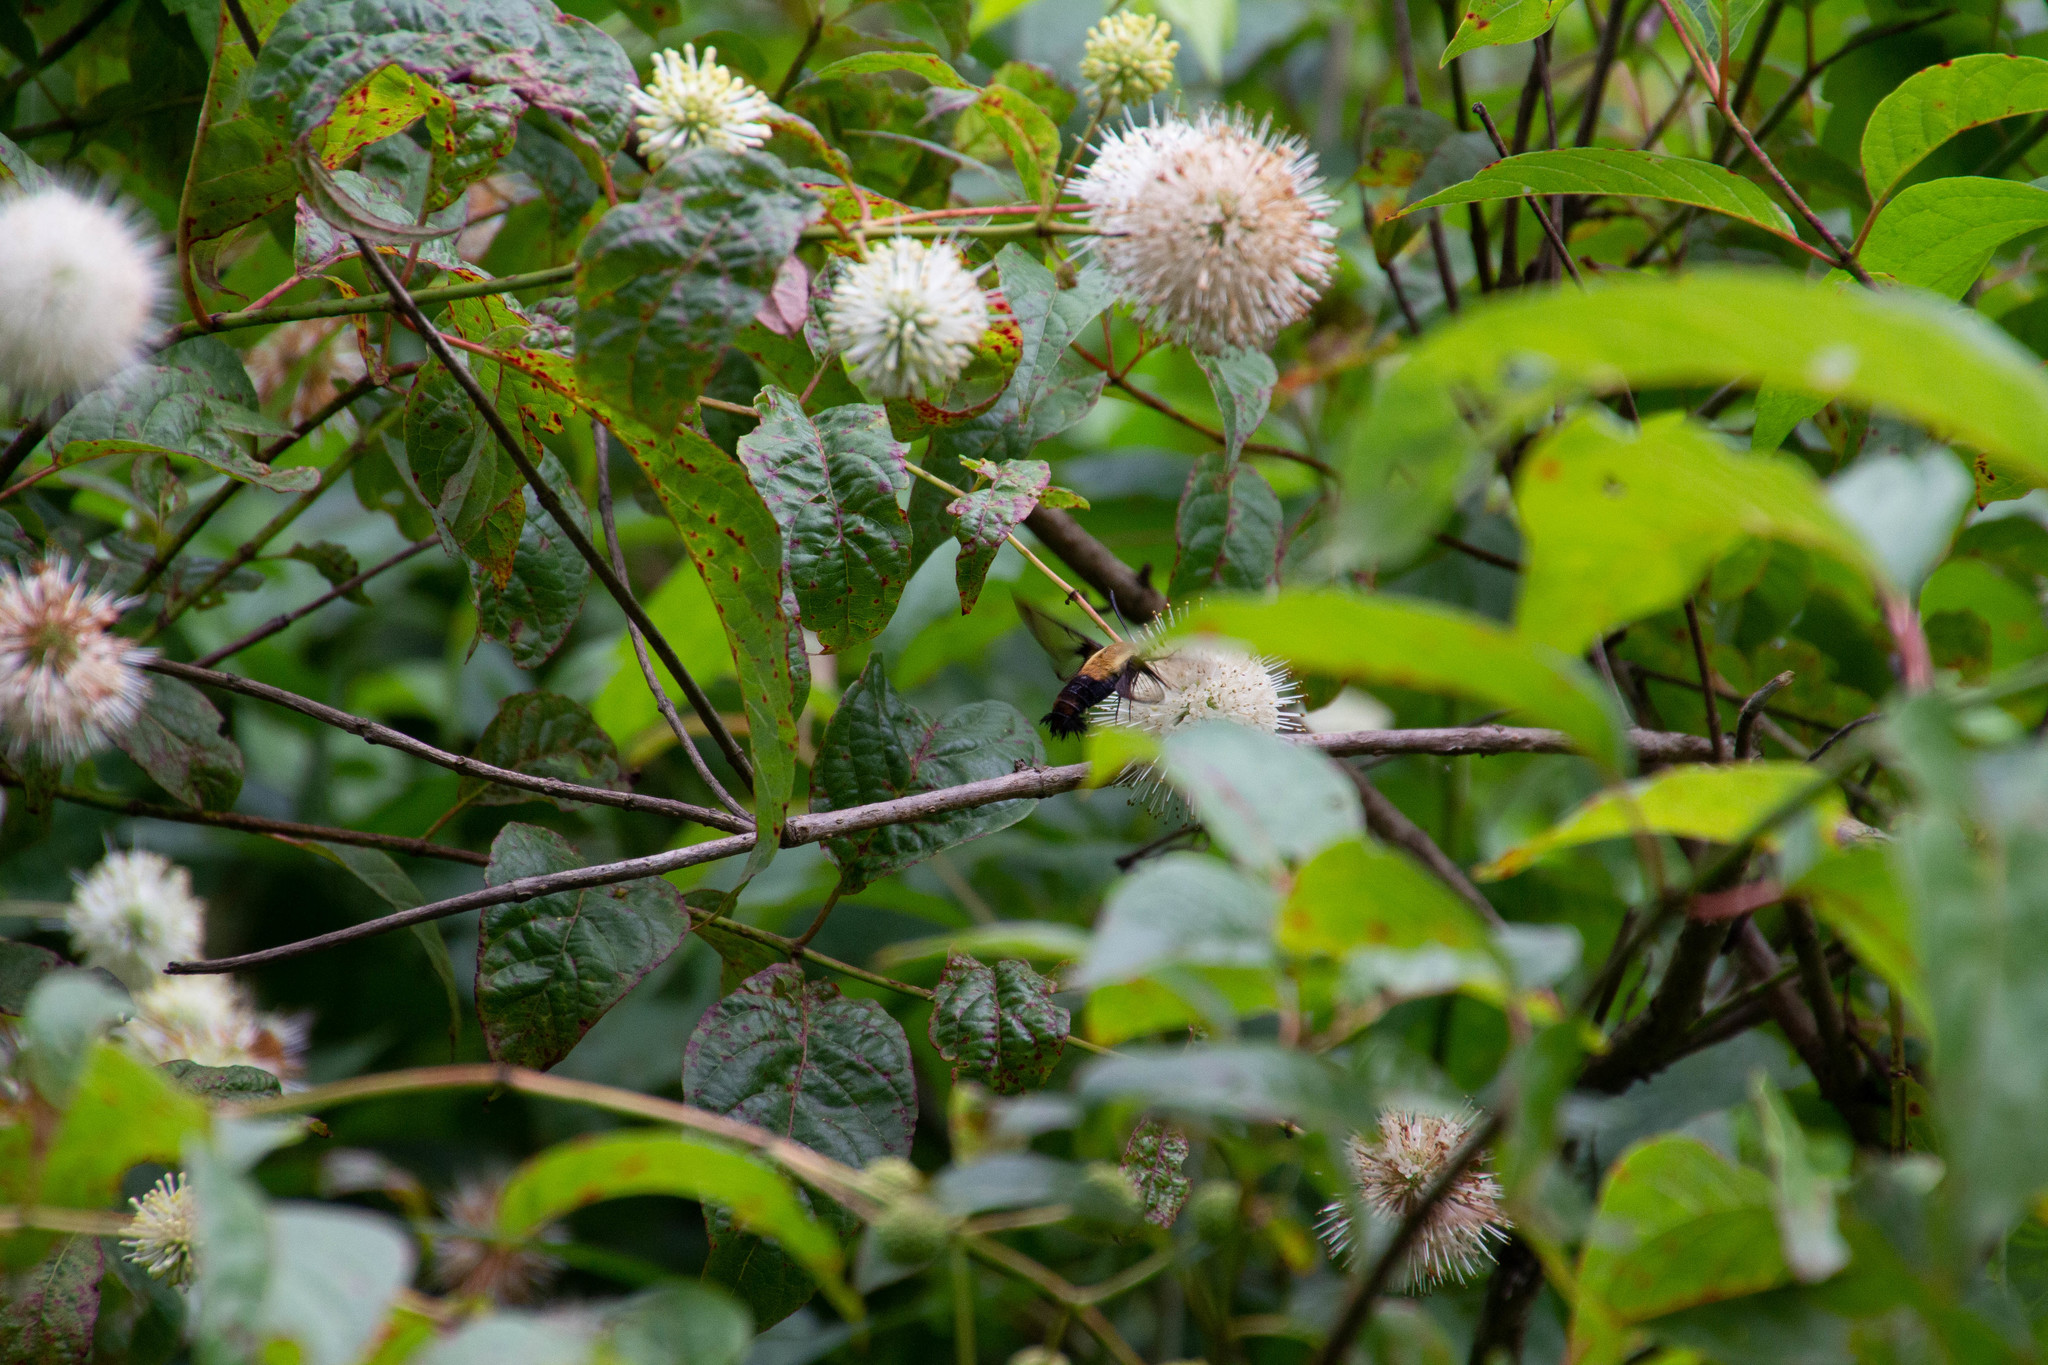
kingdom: Plantae
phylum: Tracheophyta
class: Magnoliopsida
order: Gentianales
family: Rubiaceae
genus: Cephalanthus
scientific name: Cephalanthus occidentalis
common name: Button-willow
